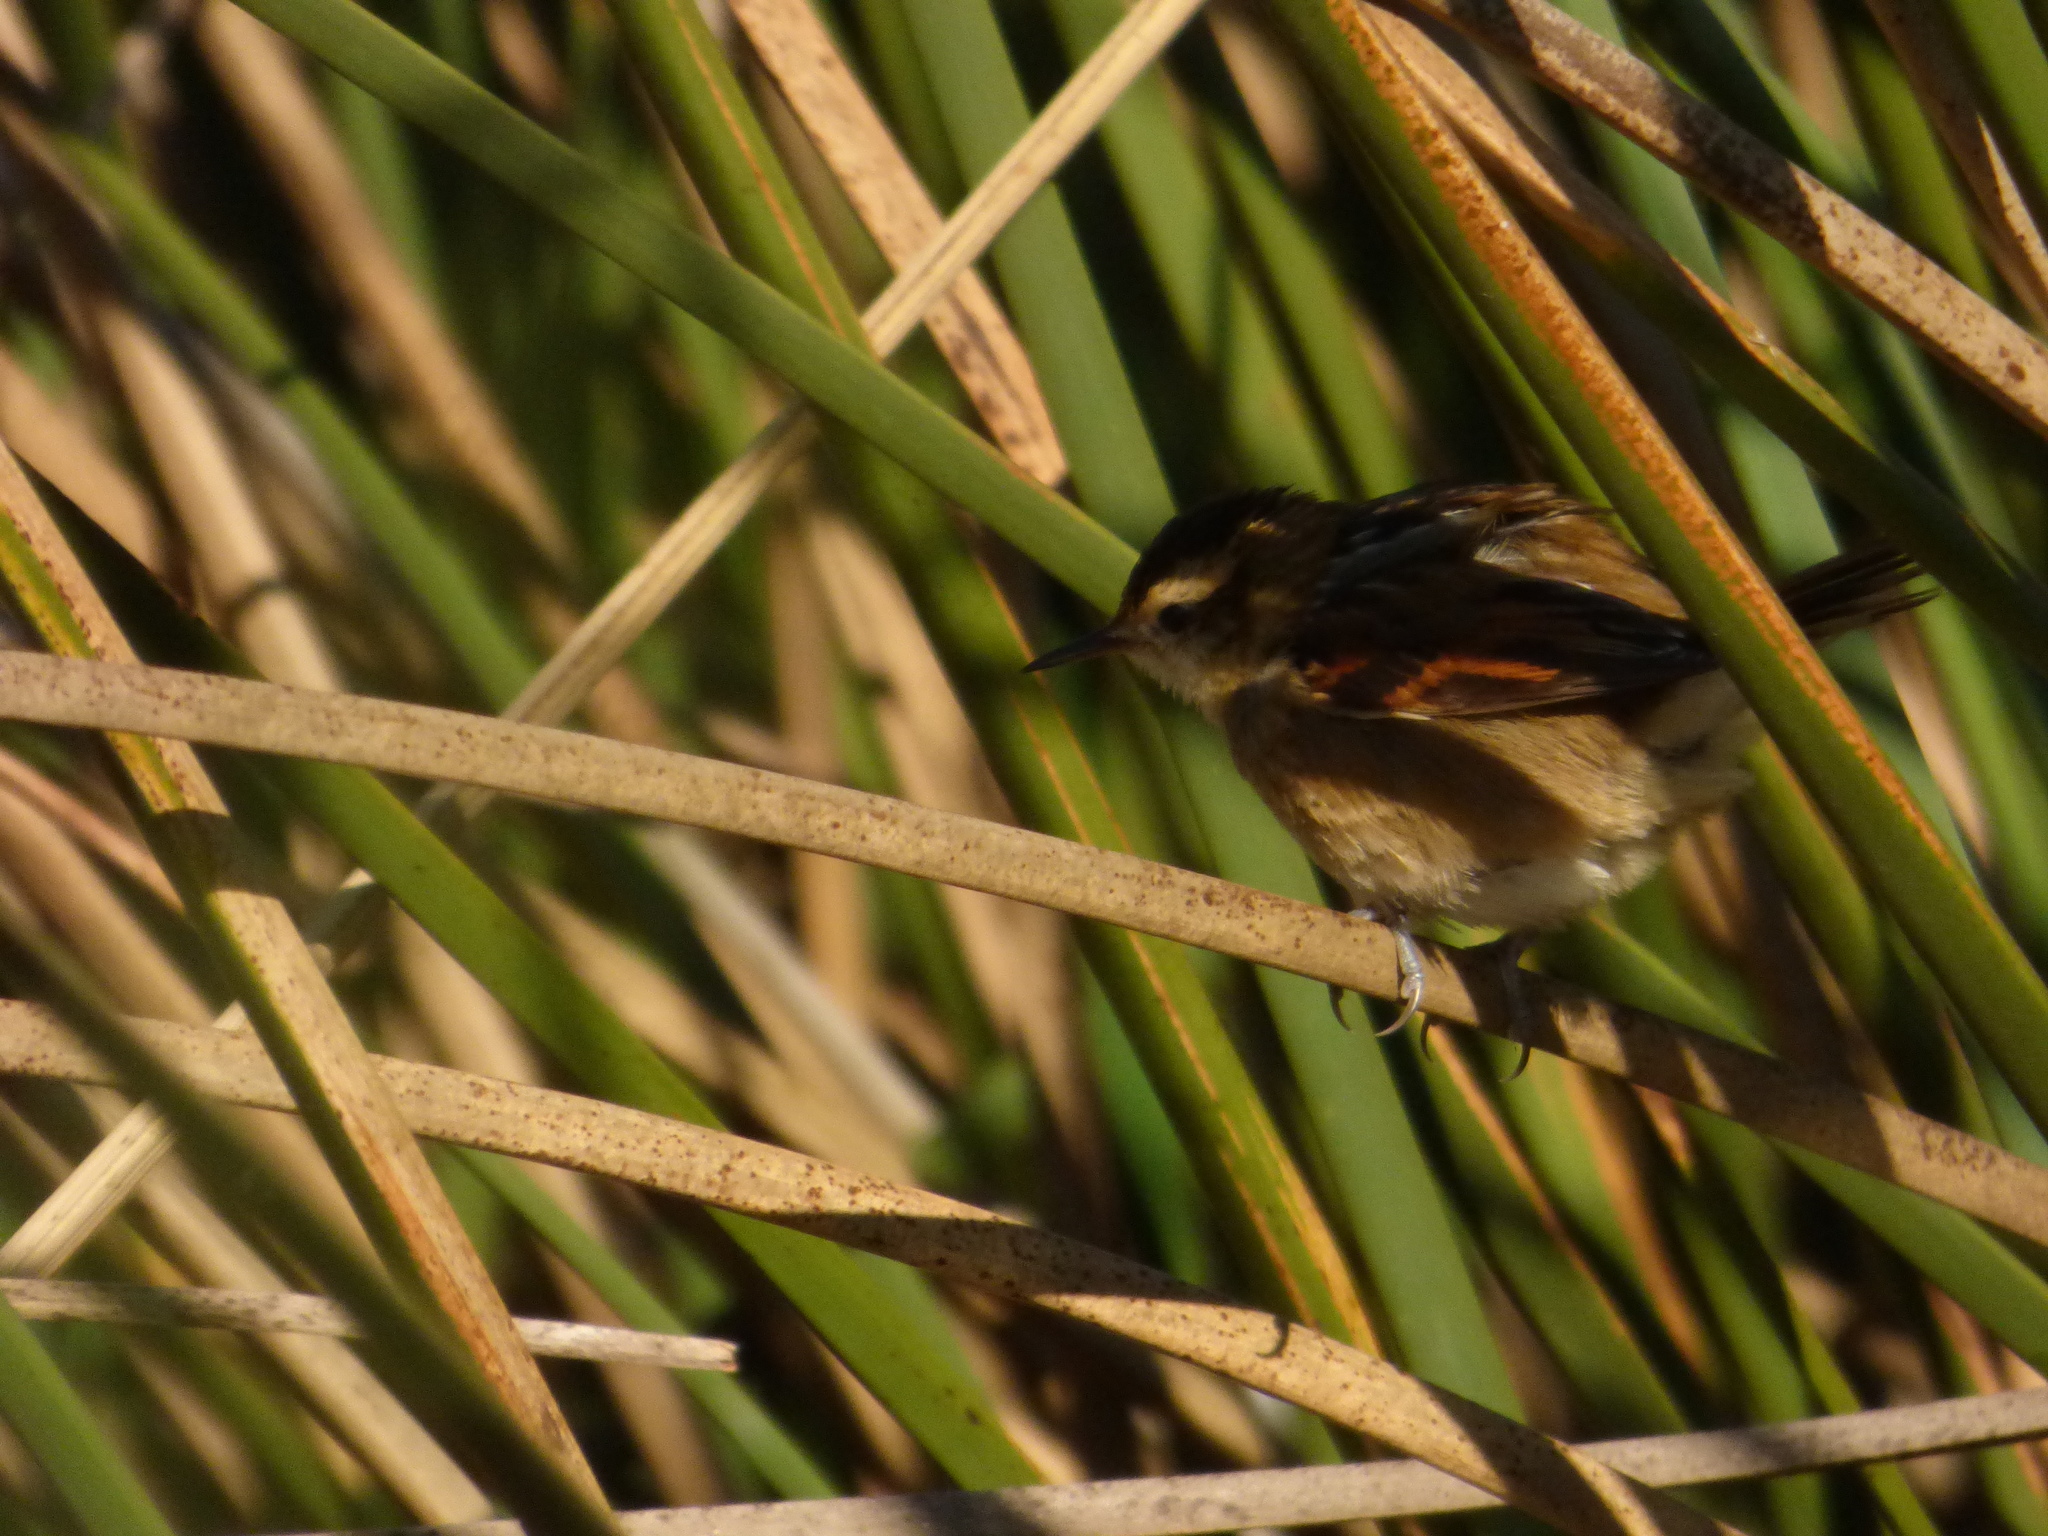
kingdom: Animalia
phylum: Chordata
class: Aves
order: Passeriformes
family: Furnariidae
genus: Phleocryptes
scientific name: Phleocryptes melanops
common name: Wren-like rushbird
